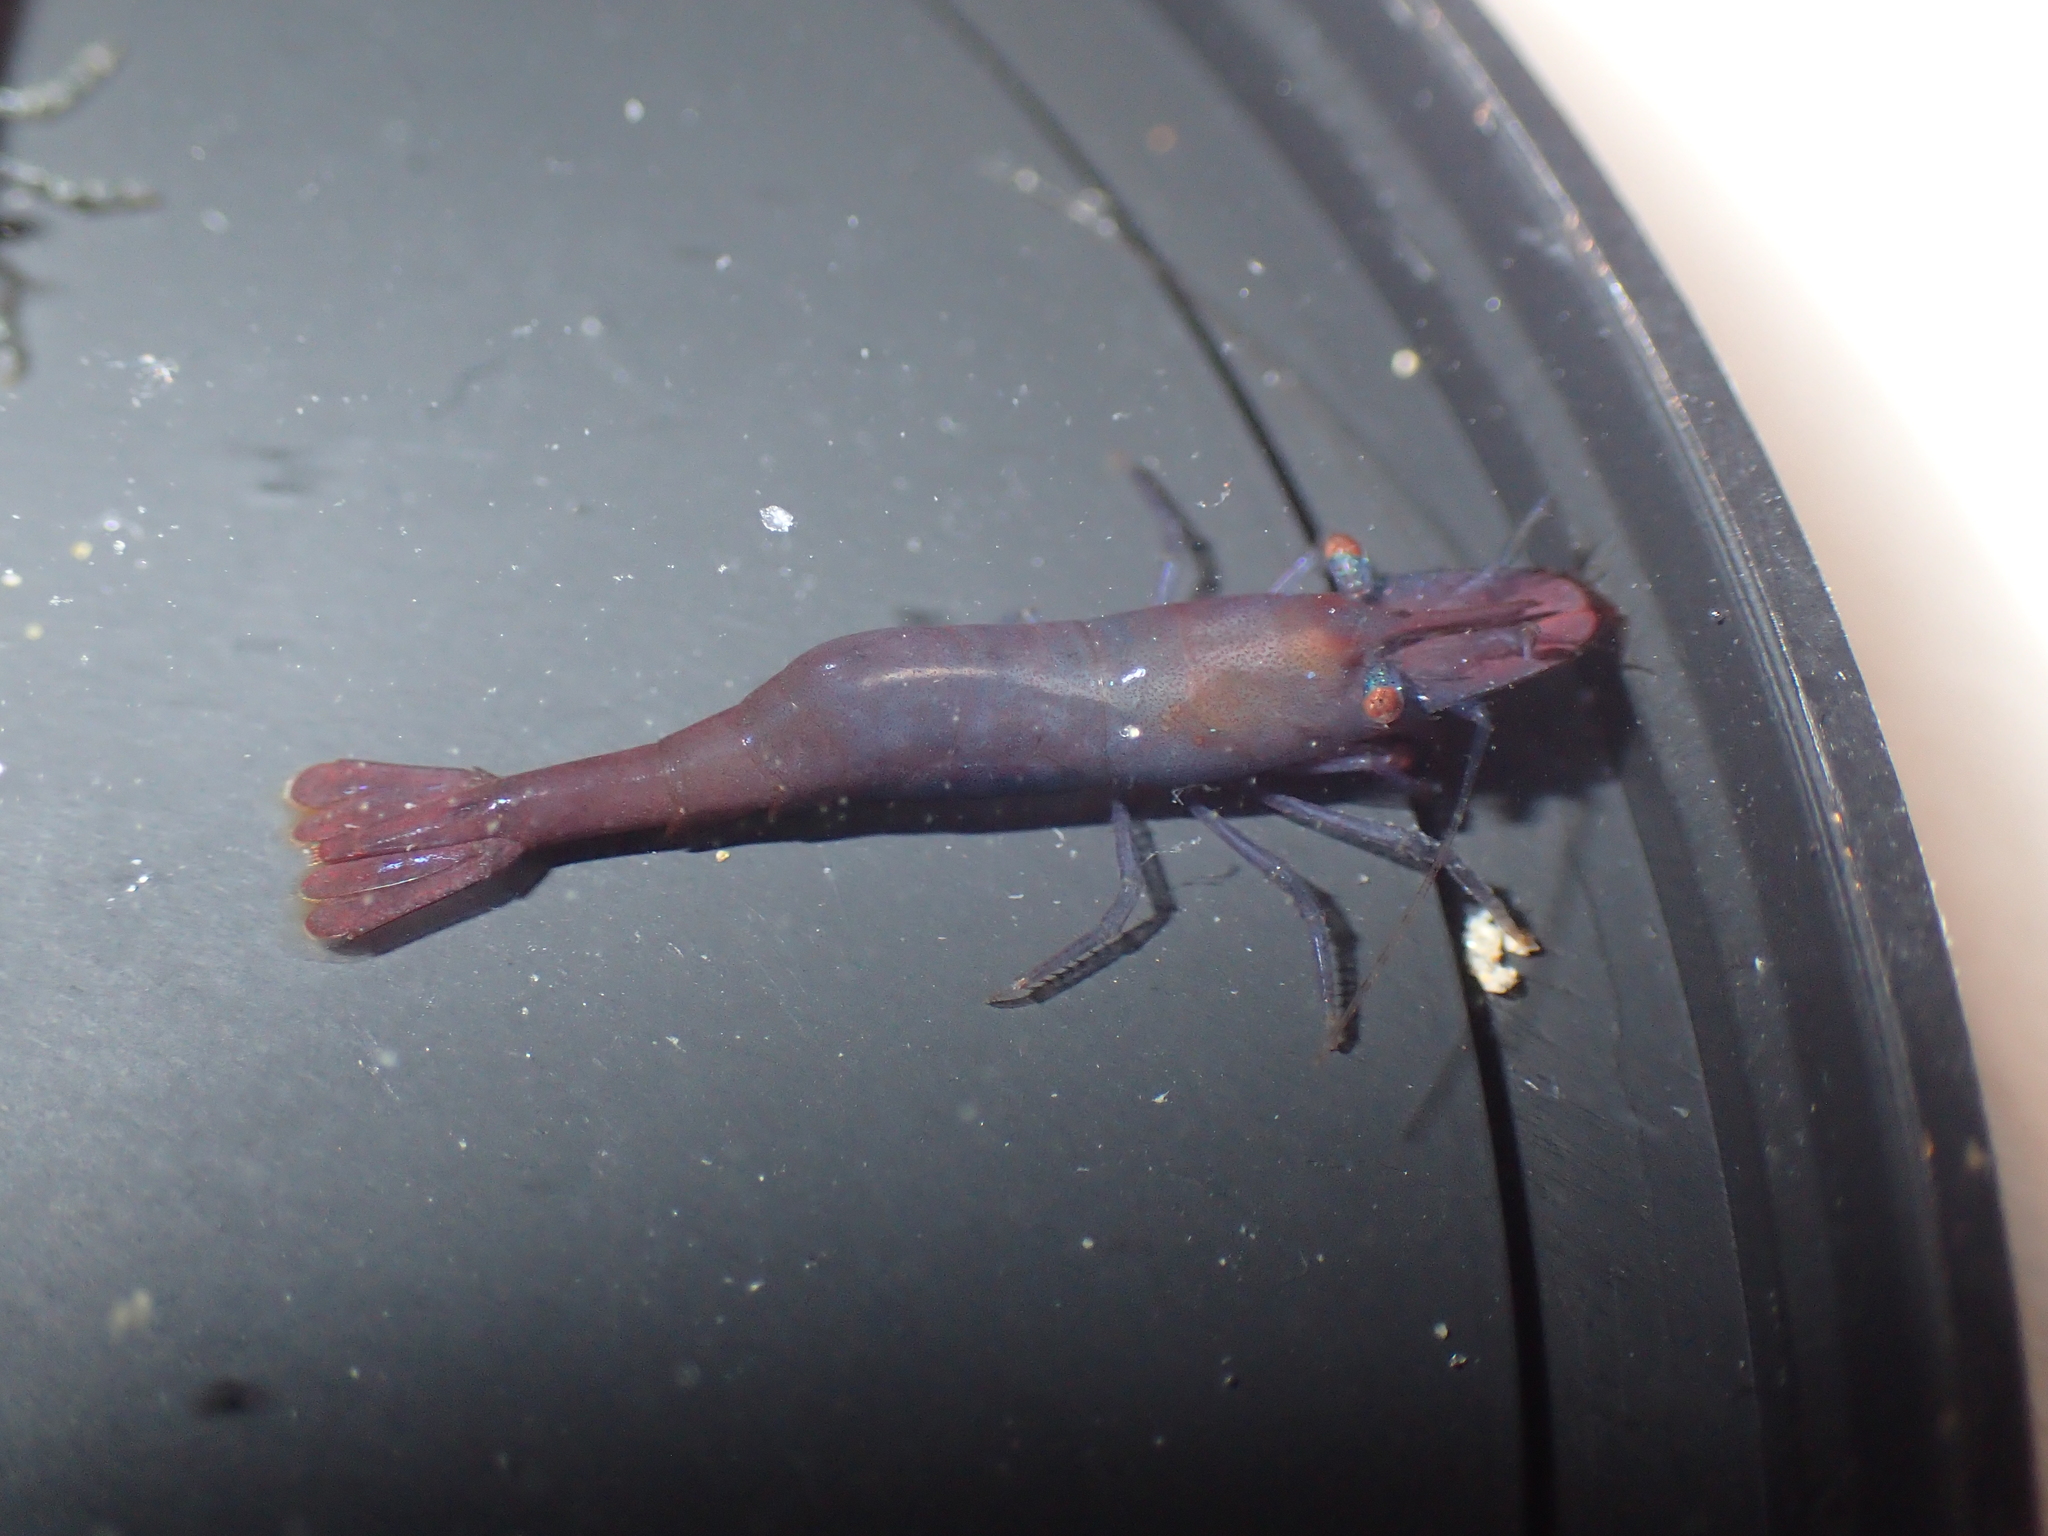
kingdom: Animalia
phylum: Arthropoda
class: Malacostraca
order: Decapoda
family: Hippolytidae
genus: Hippolyte
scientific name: Hippolyte varians
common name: Chamaeleon prawn
